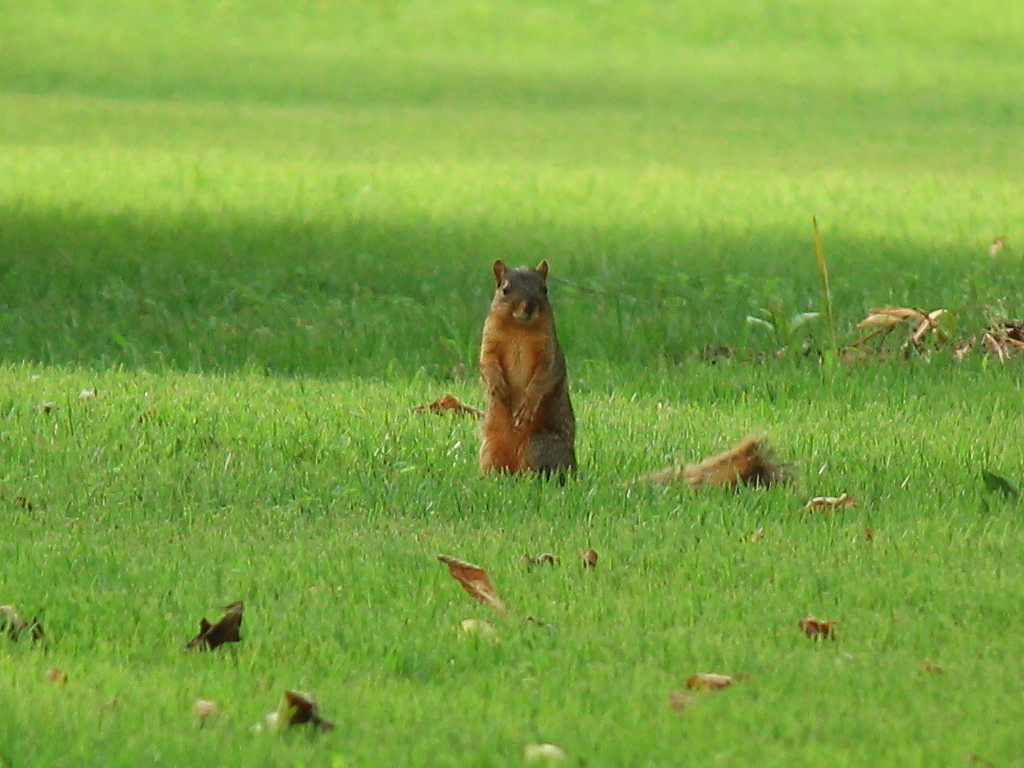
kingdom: Animalia
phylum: Chordata
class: Mammalia
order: Rodentia
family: Sciuridae
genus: Sciurus
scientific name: Sciurus niger
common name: Fox squirrel
